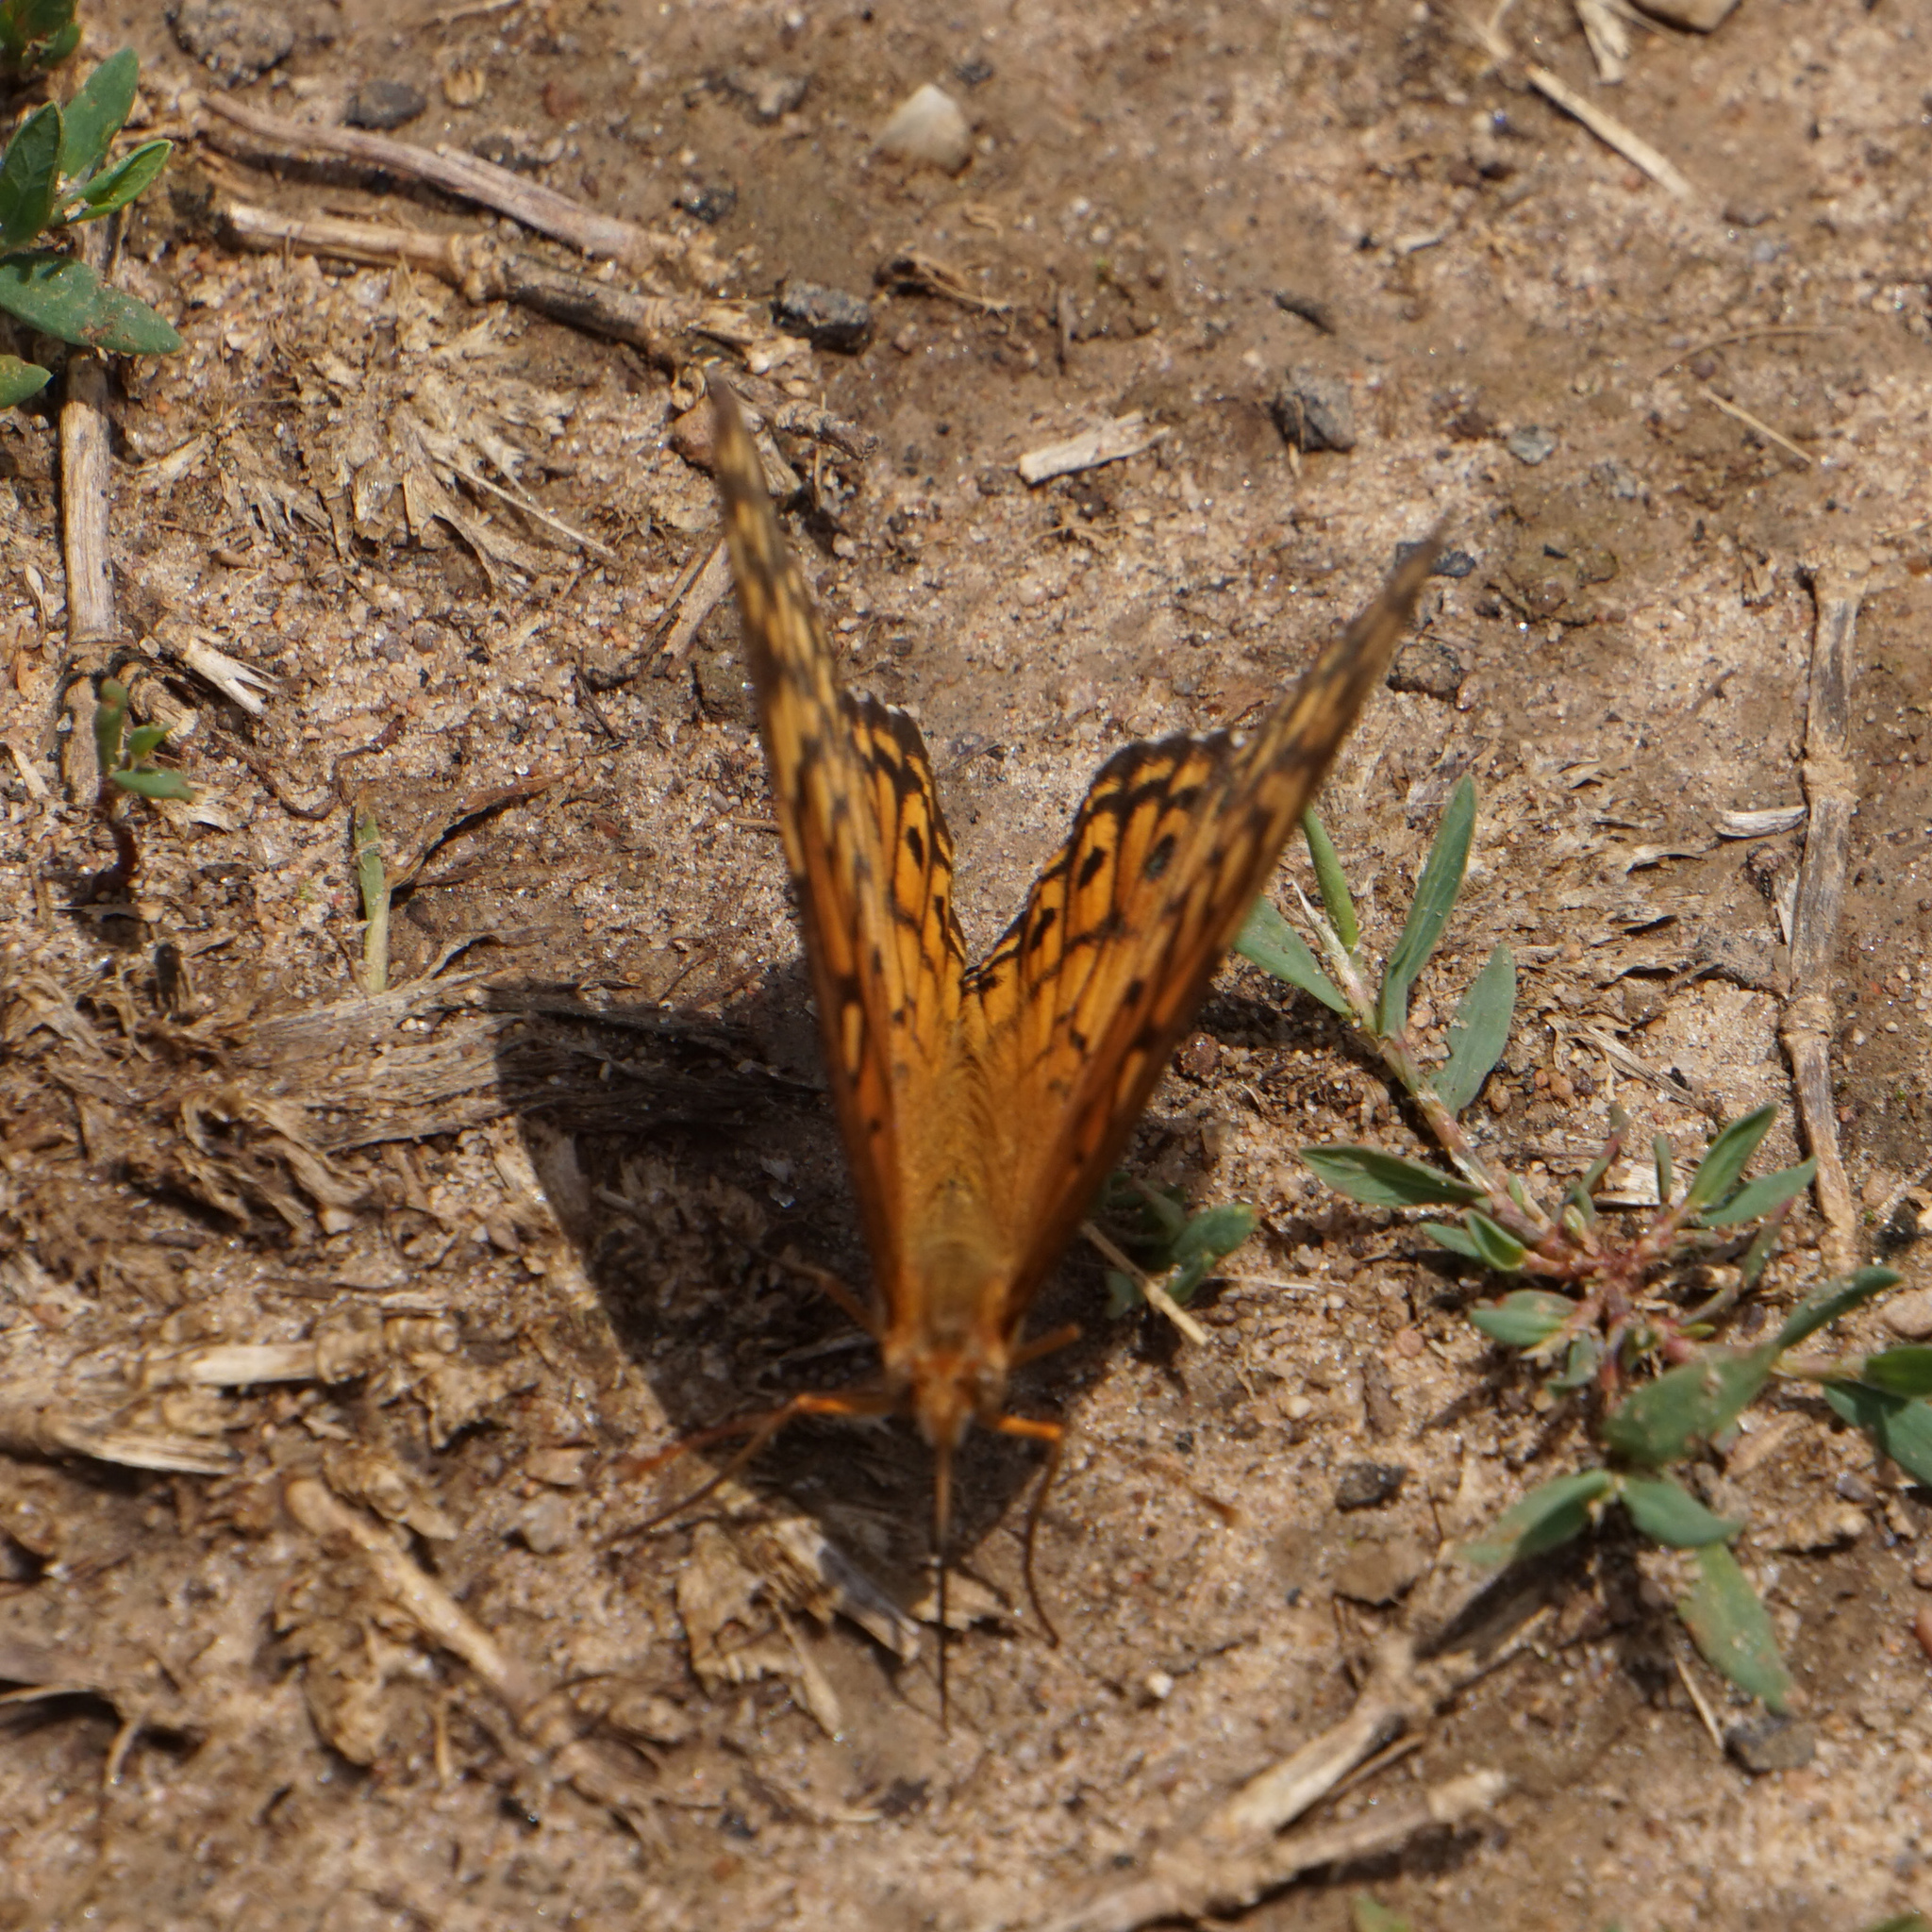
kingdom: Animalia
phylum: Arthropoda
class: Insecta
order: Lepidoptera
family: Nymphalidae
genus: Euptoieta
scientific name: Euptoieta claudia
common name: Variegated fritillary
